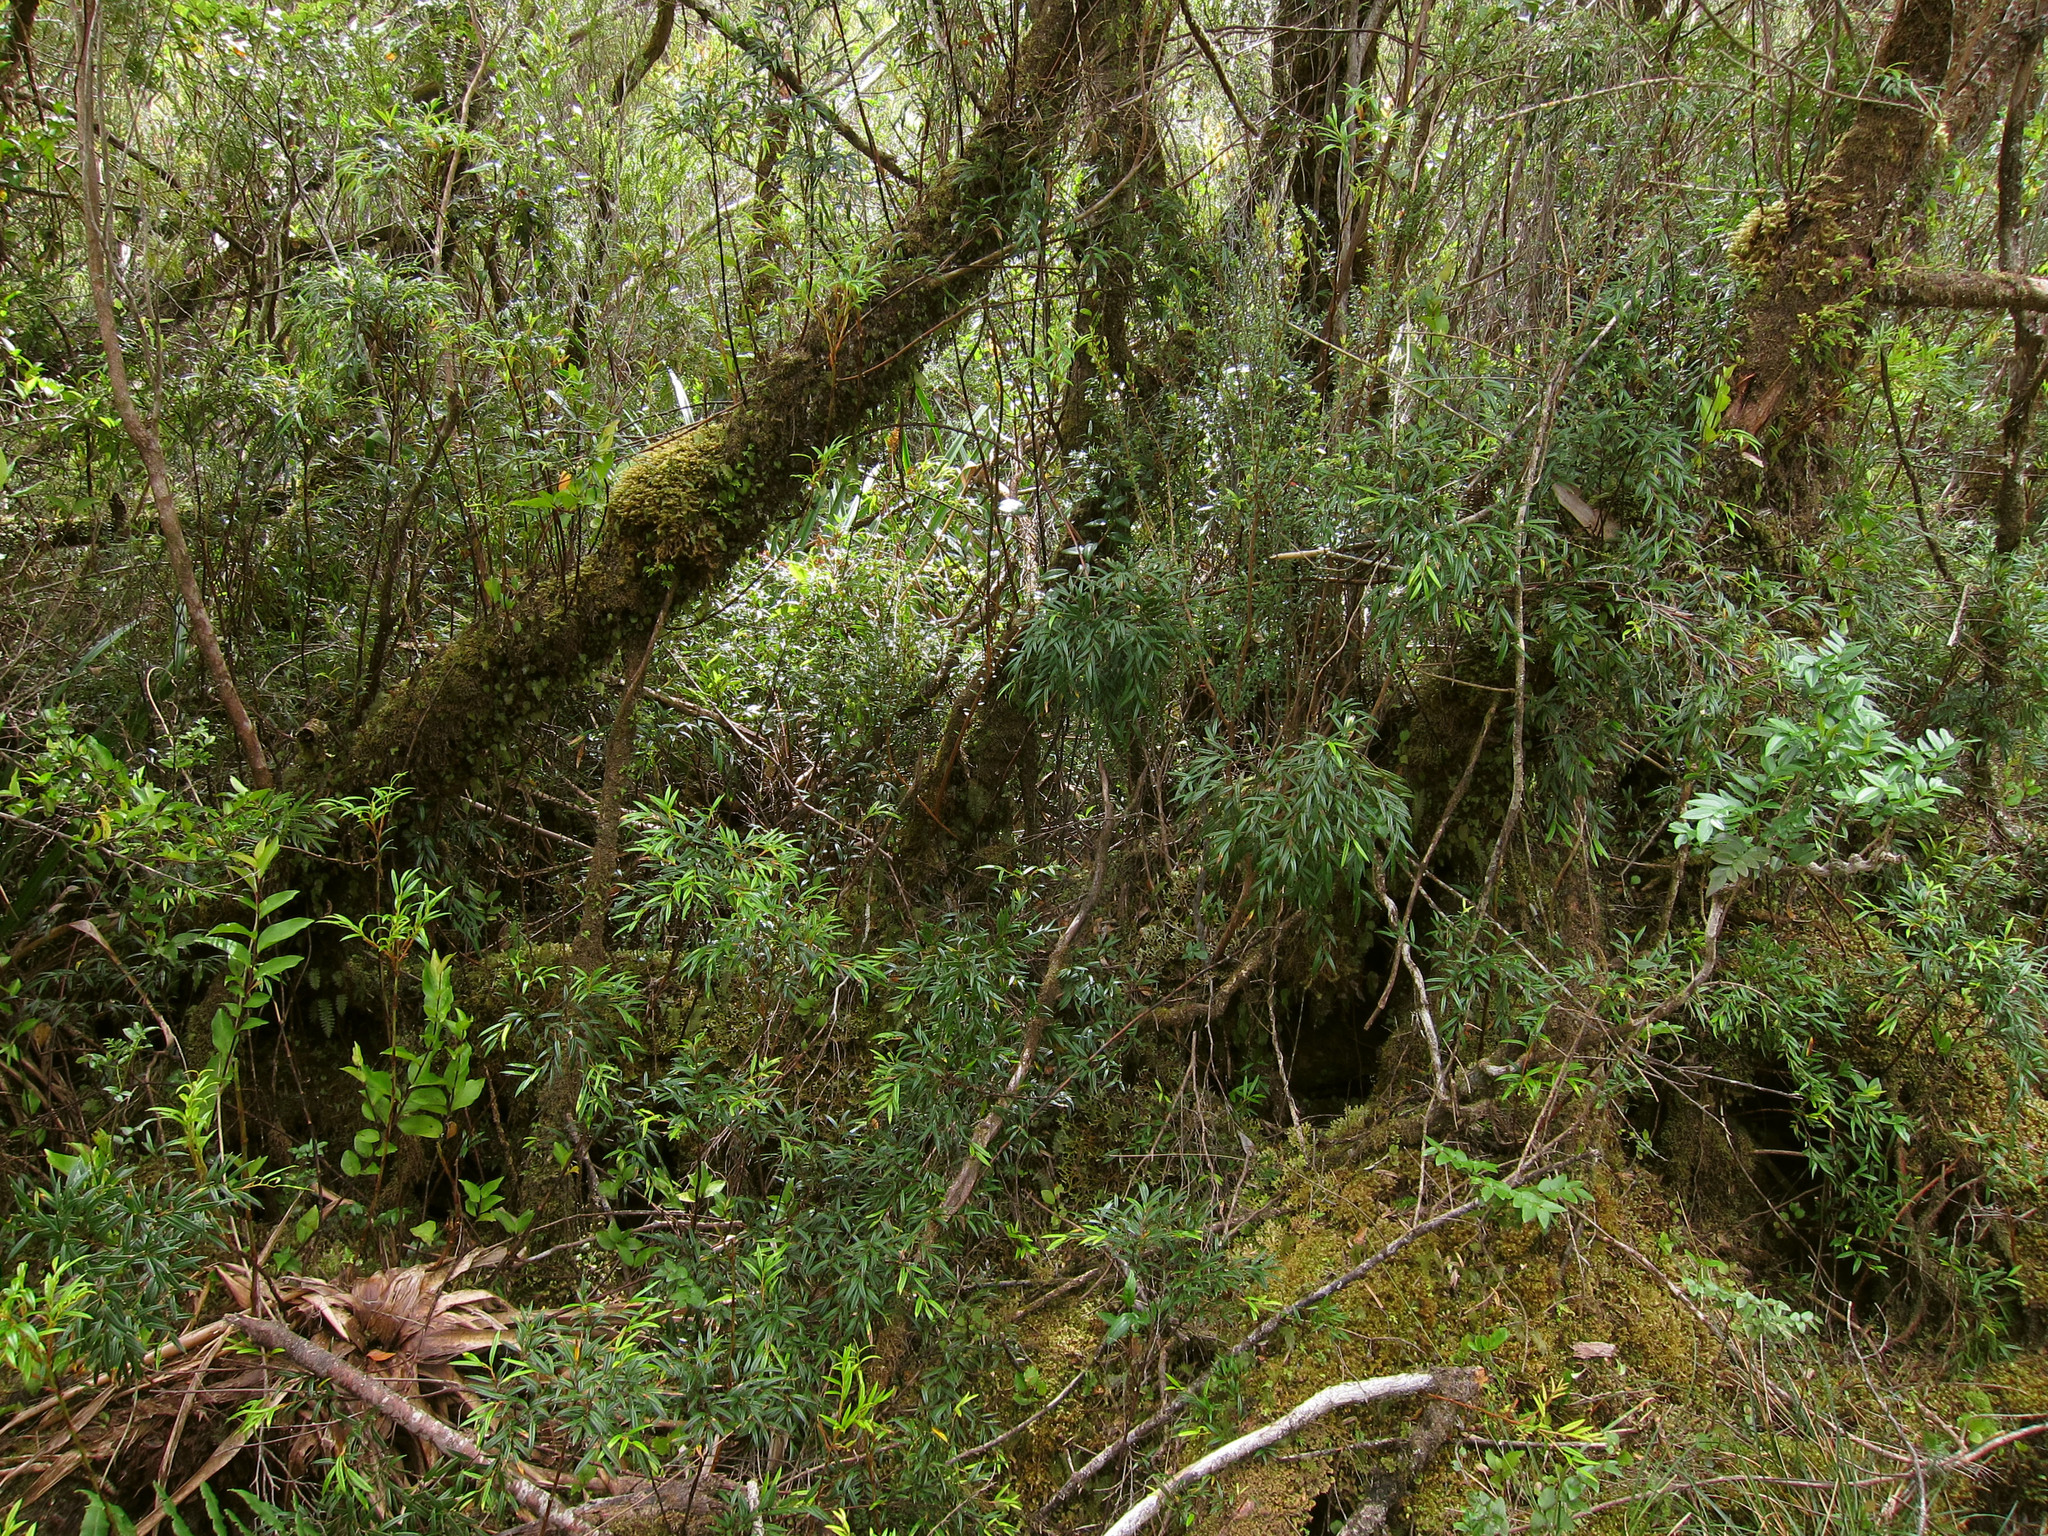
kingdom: Plantae
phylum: Tracheophyta
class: Magnoliopsida
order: Myrtales
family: Myrtaceae
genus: Tepualia
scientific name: Tepualia stipularis
